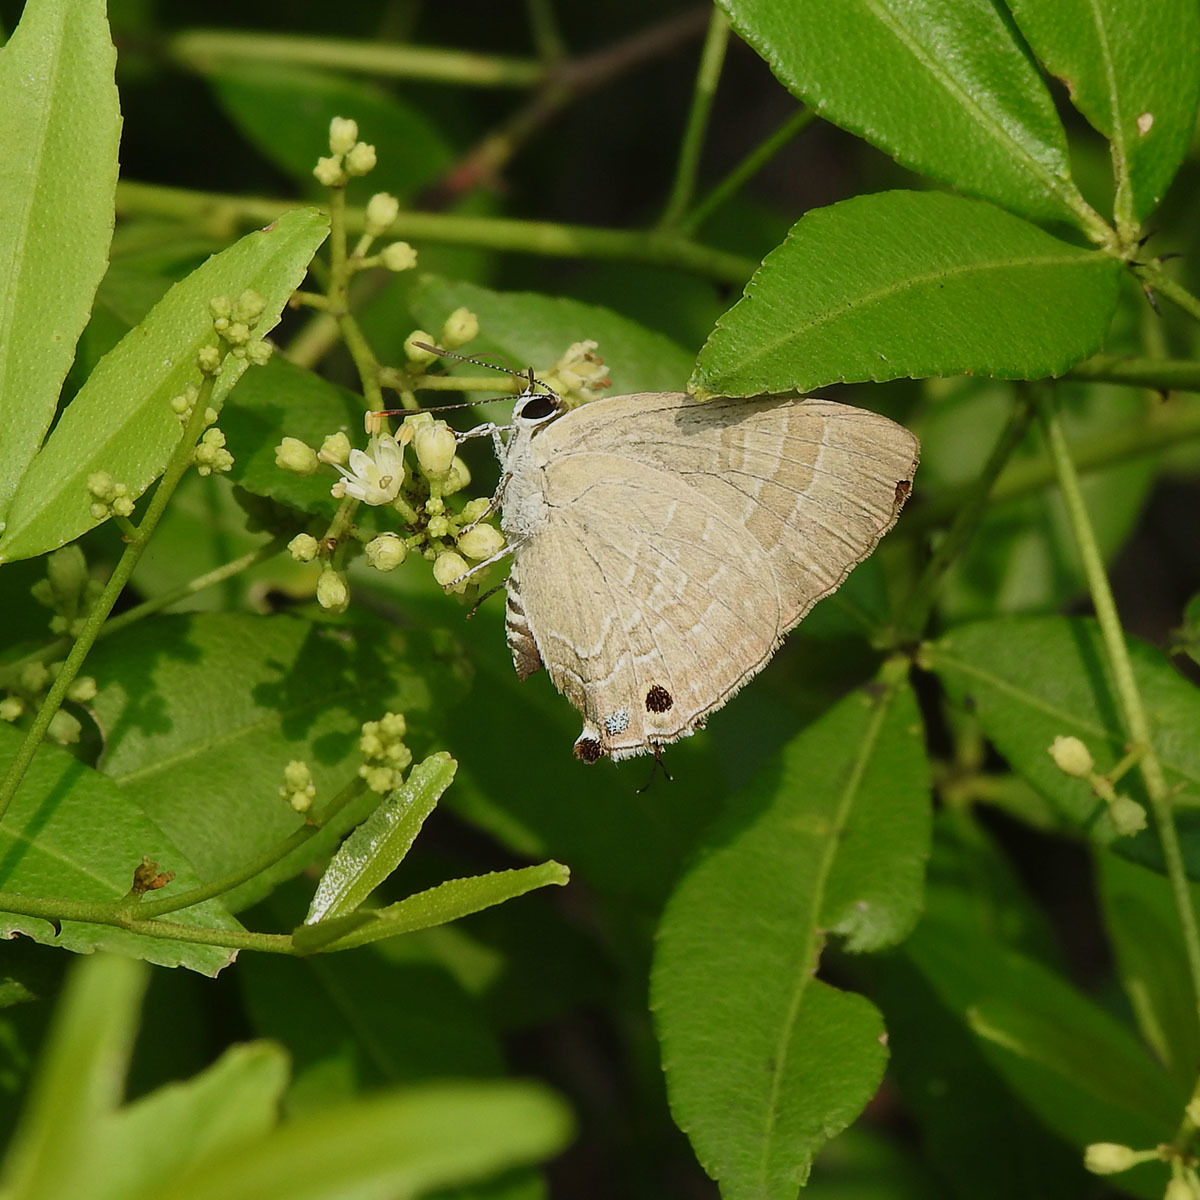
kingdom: Animalia
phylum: Arthropoda
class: Insecta
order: Lepidoptera
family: Lycaenidae
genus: Deudorix
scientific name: Deudorix epijarbas
